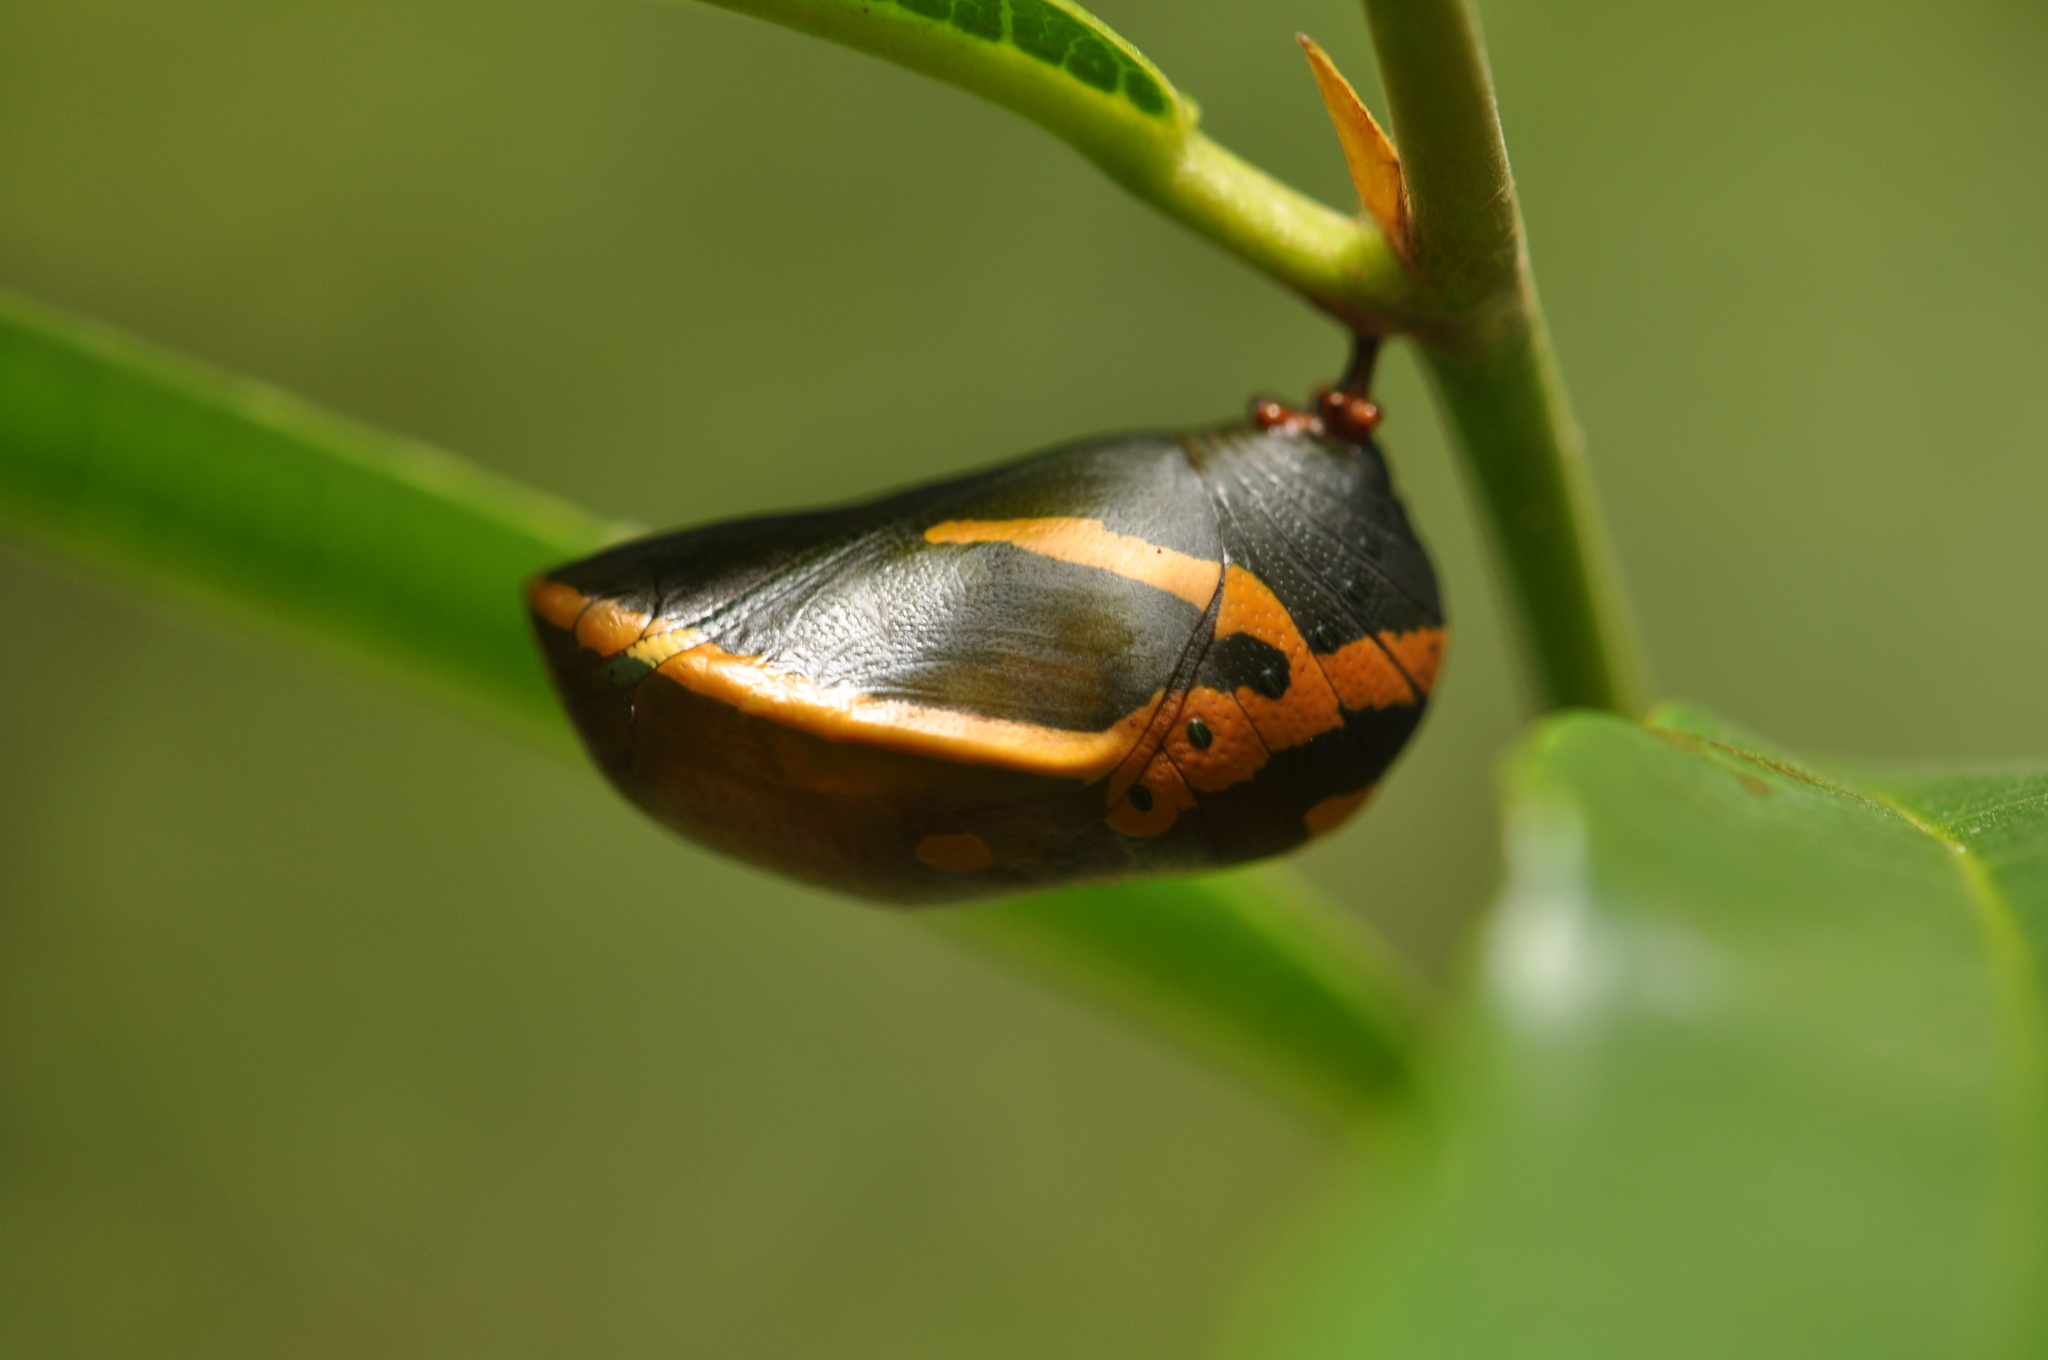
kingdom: Animalia
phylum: Arthropoda
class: Insecta
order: Lepidoptera
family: Nymphalidae
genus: Charaxes
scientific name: Charaxes etesipe
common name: Savannah charaxes
